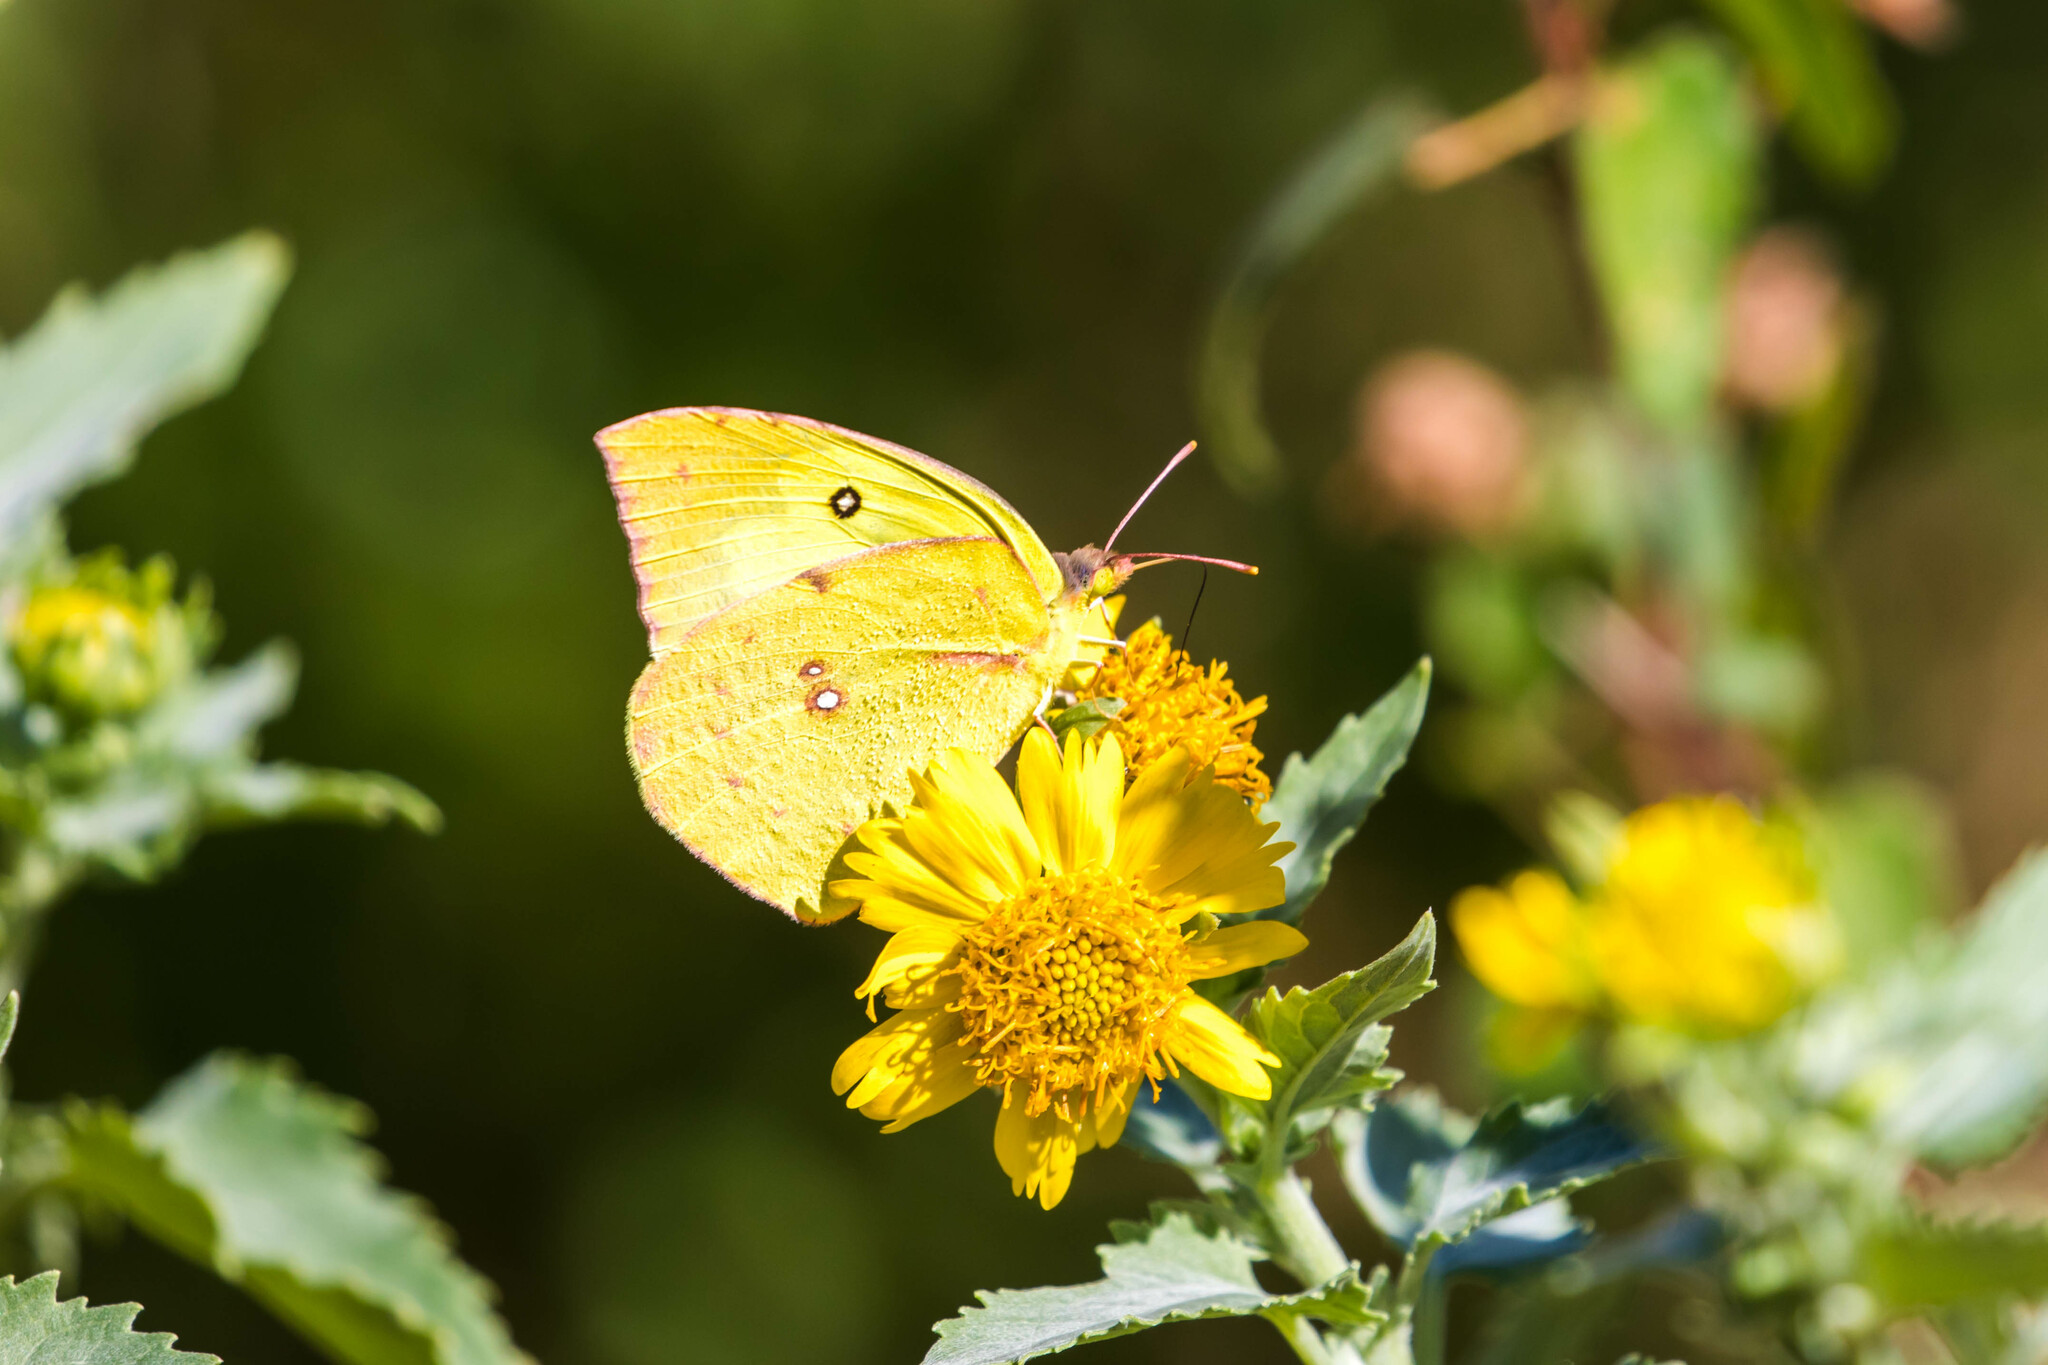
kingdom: Animalia
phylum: Arthropoda
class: Insecta
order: Lepidoptera
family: Pieridae
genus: Zerene
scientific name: Zerene cesonia
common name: Southern dogface
